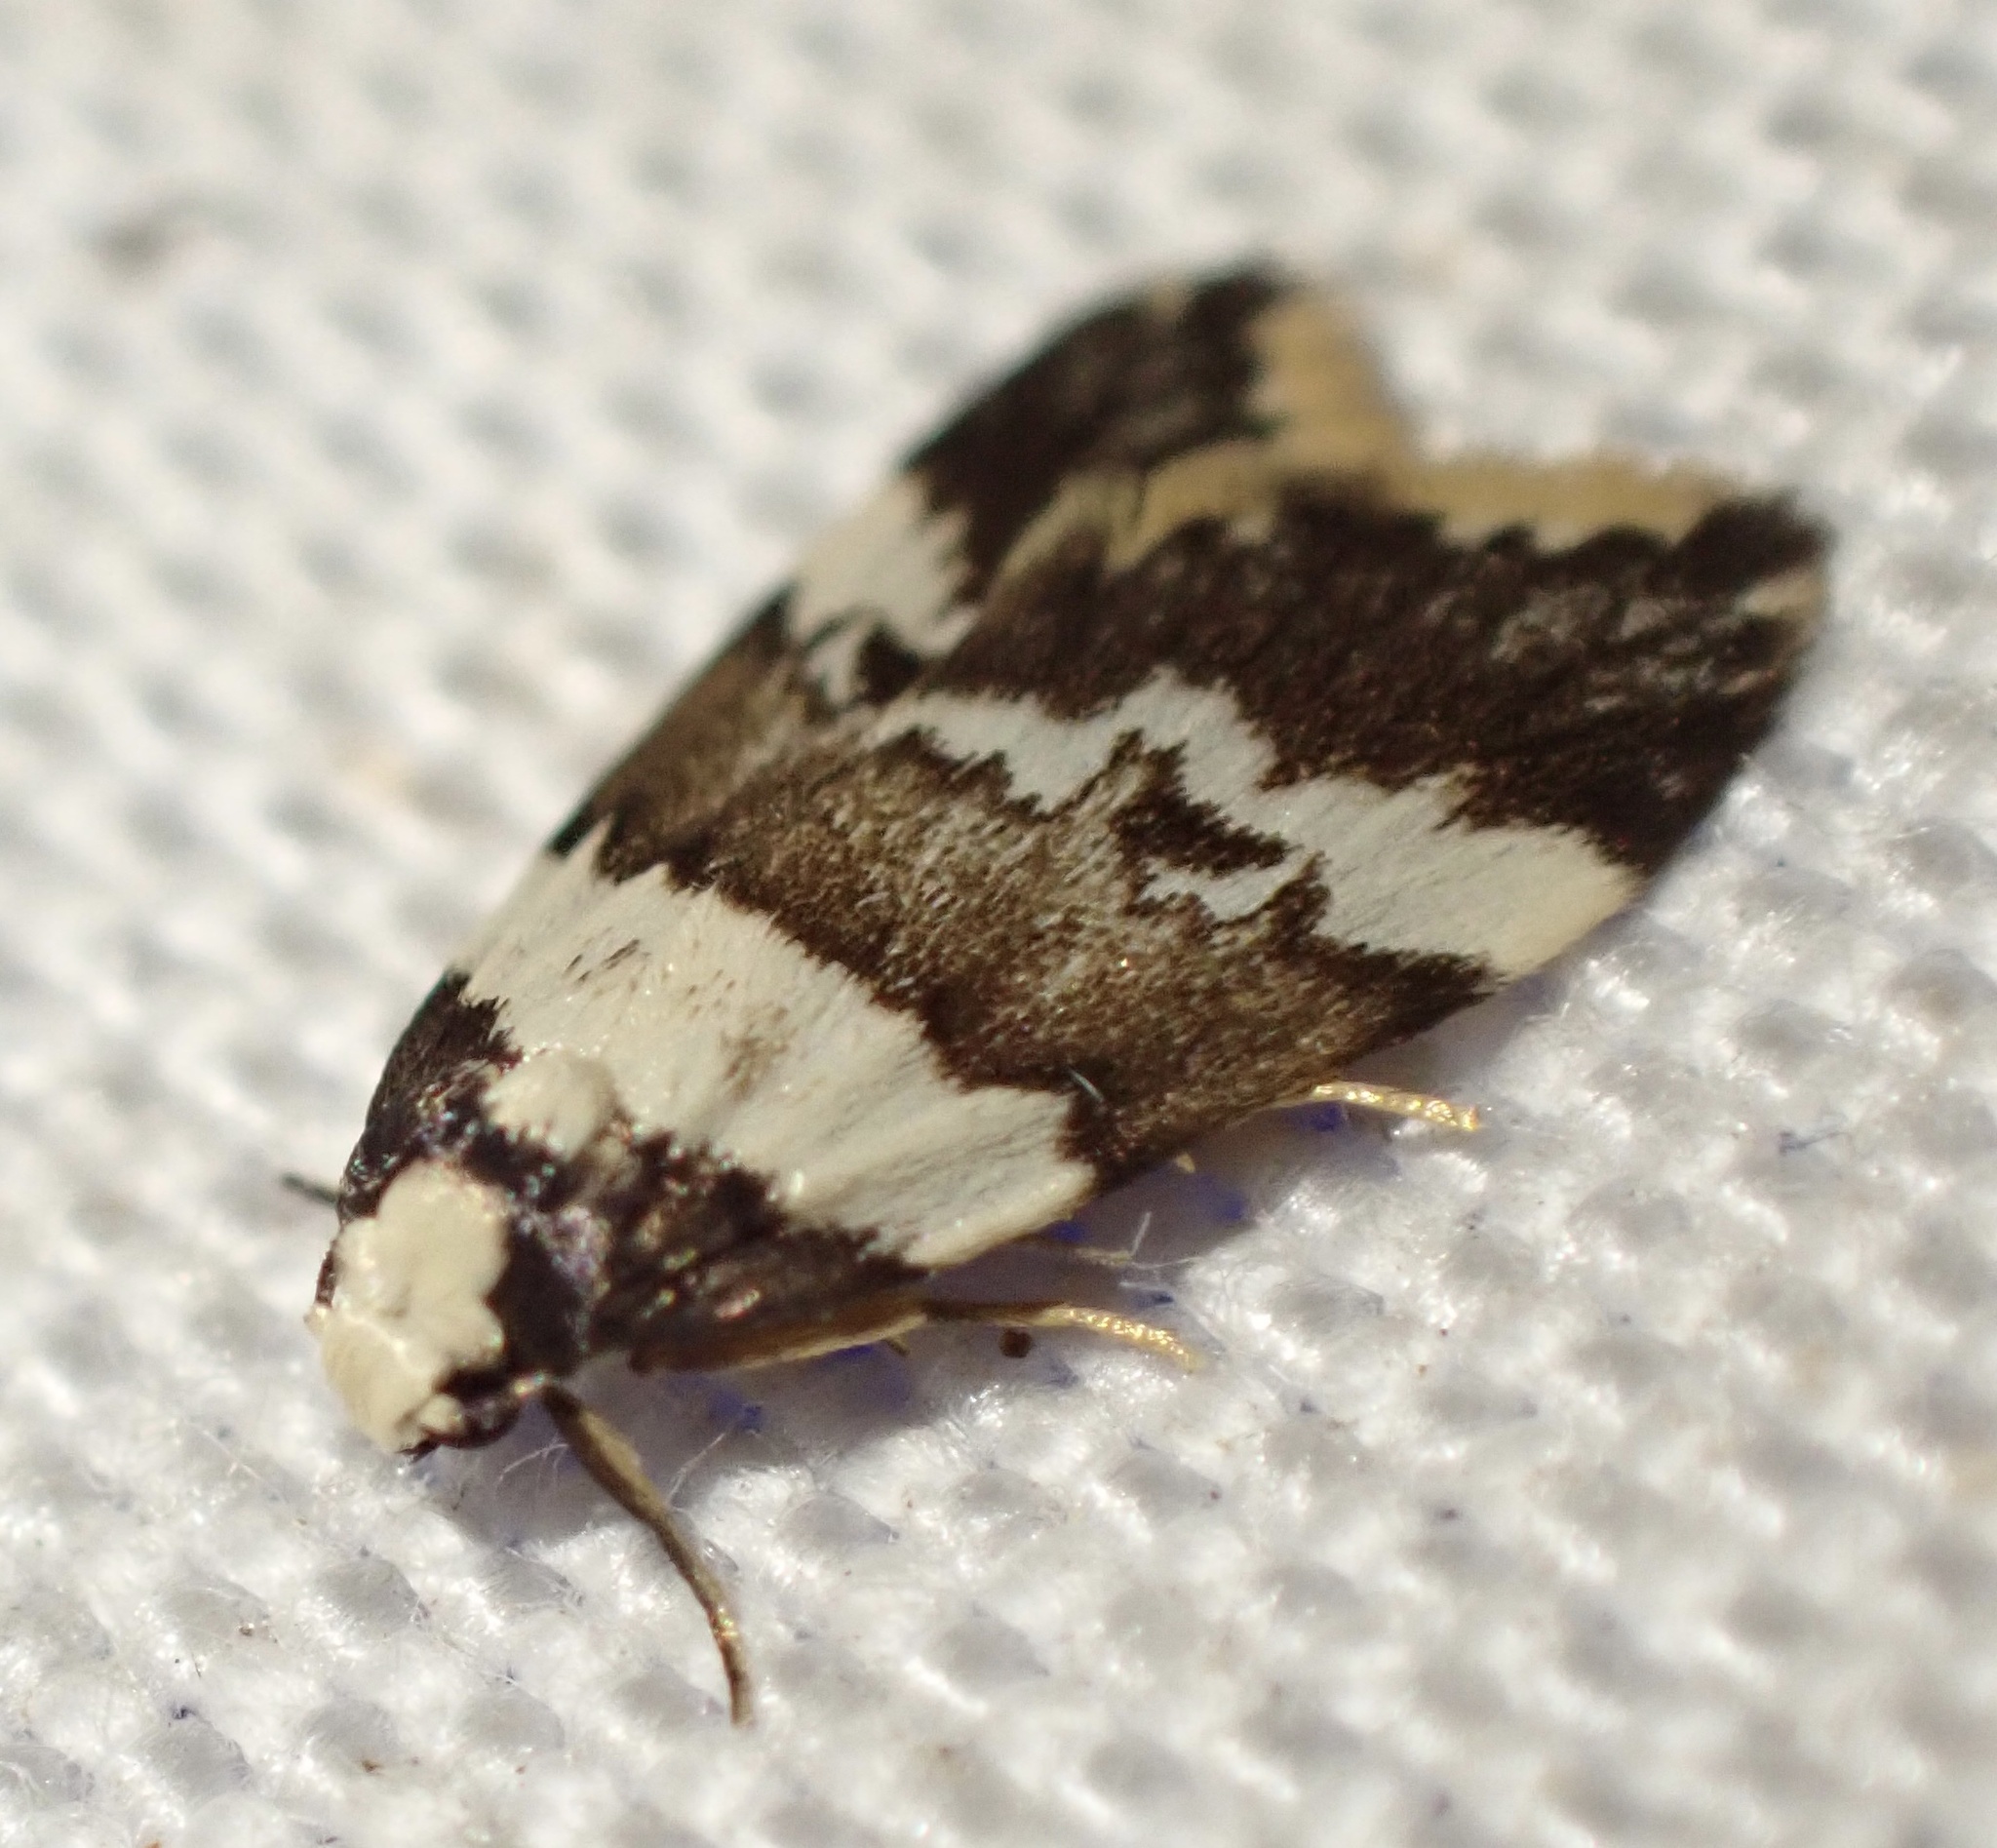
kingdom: Animalia
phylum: Arthropoda
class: Insecta
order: Lepidoptera
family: Erebidae
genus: Halone
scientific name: Halone sejuncta
